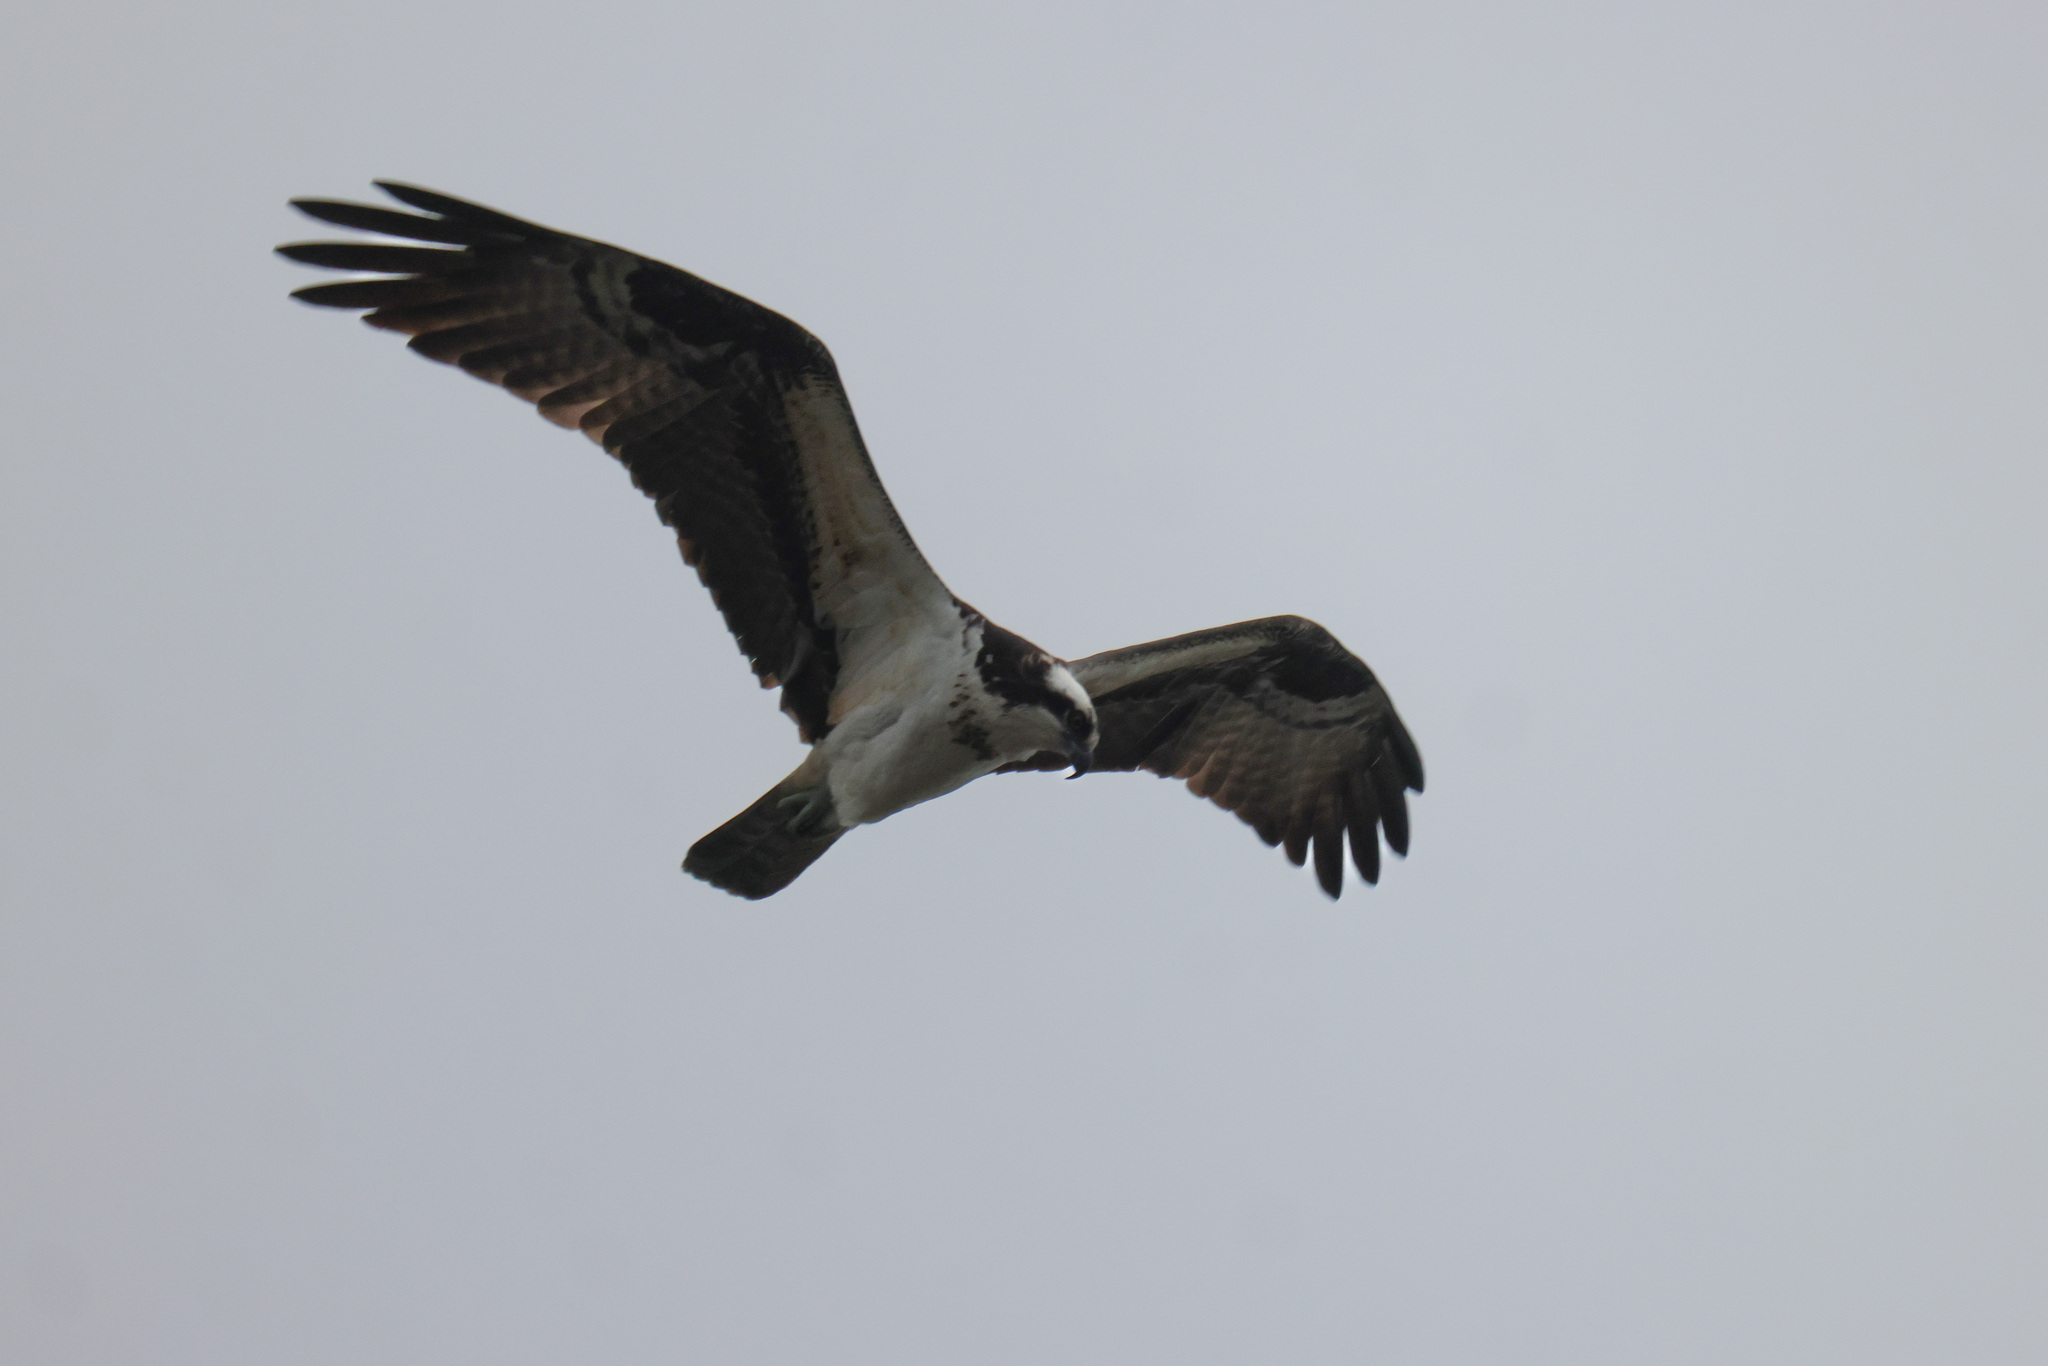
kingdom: Animalia
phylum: Chordata
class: Aves
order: Accipitriformes
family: Pandionidae
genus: Pandion
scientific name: Pandion haliaetus
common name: Osprey
